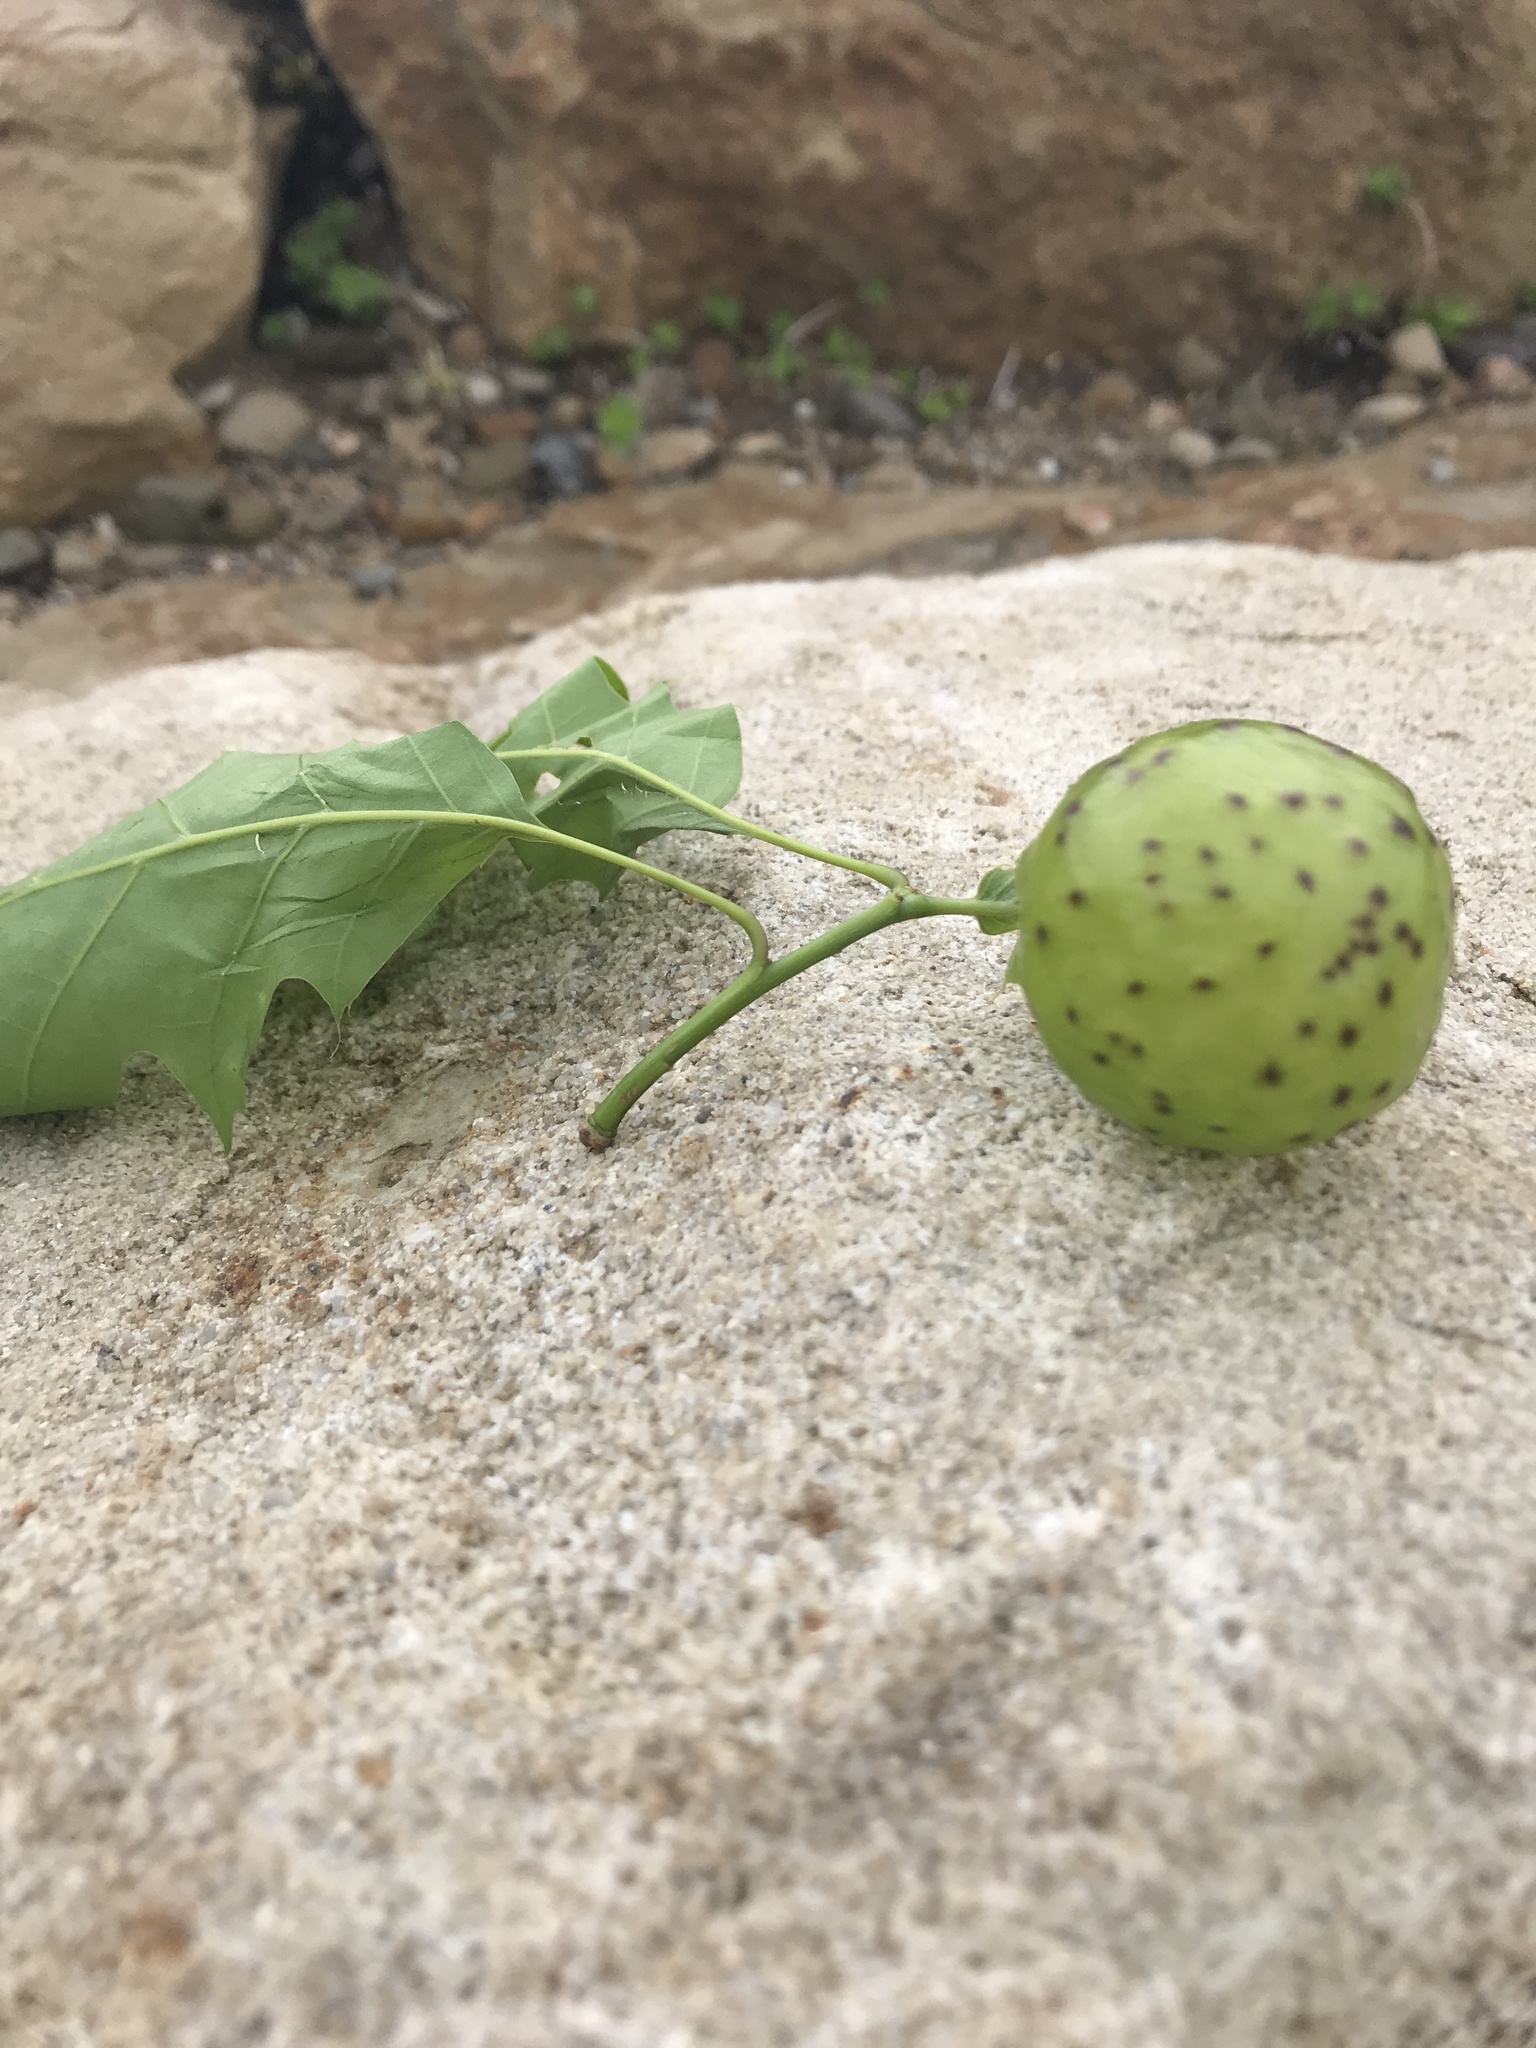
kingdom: Animalia
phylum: Arthropoda
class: Insecta
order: Hymenoptera
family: Cynipidae
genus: Amphibolips
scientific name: Amphibolips
